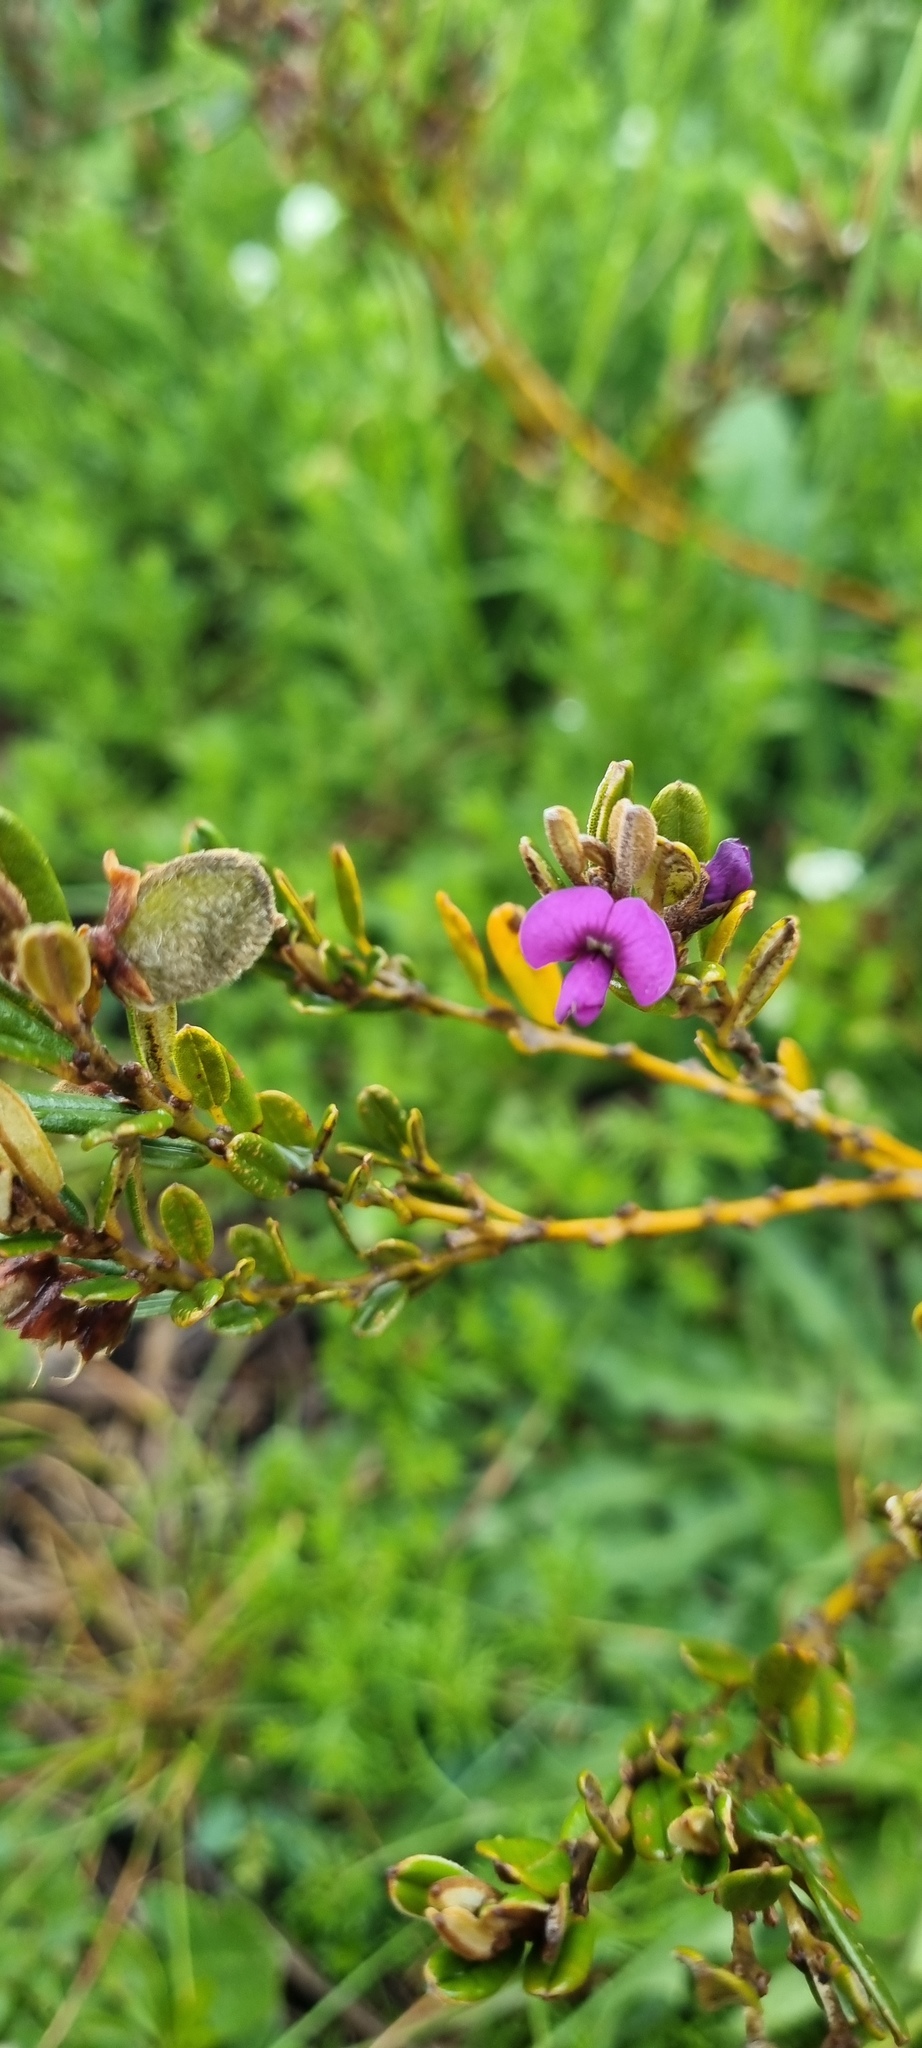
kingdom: Plantae
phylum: Tracheophyta
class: Magnoliopsida
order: Fabales
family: Fabaceae
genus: Hovea
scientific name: Hovea montana
